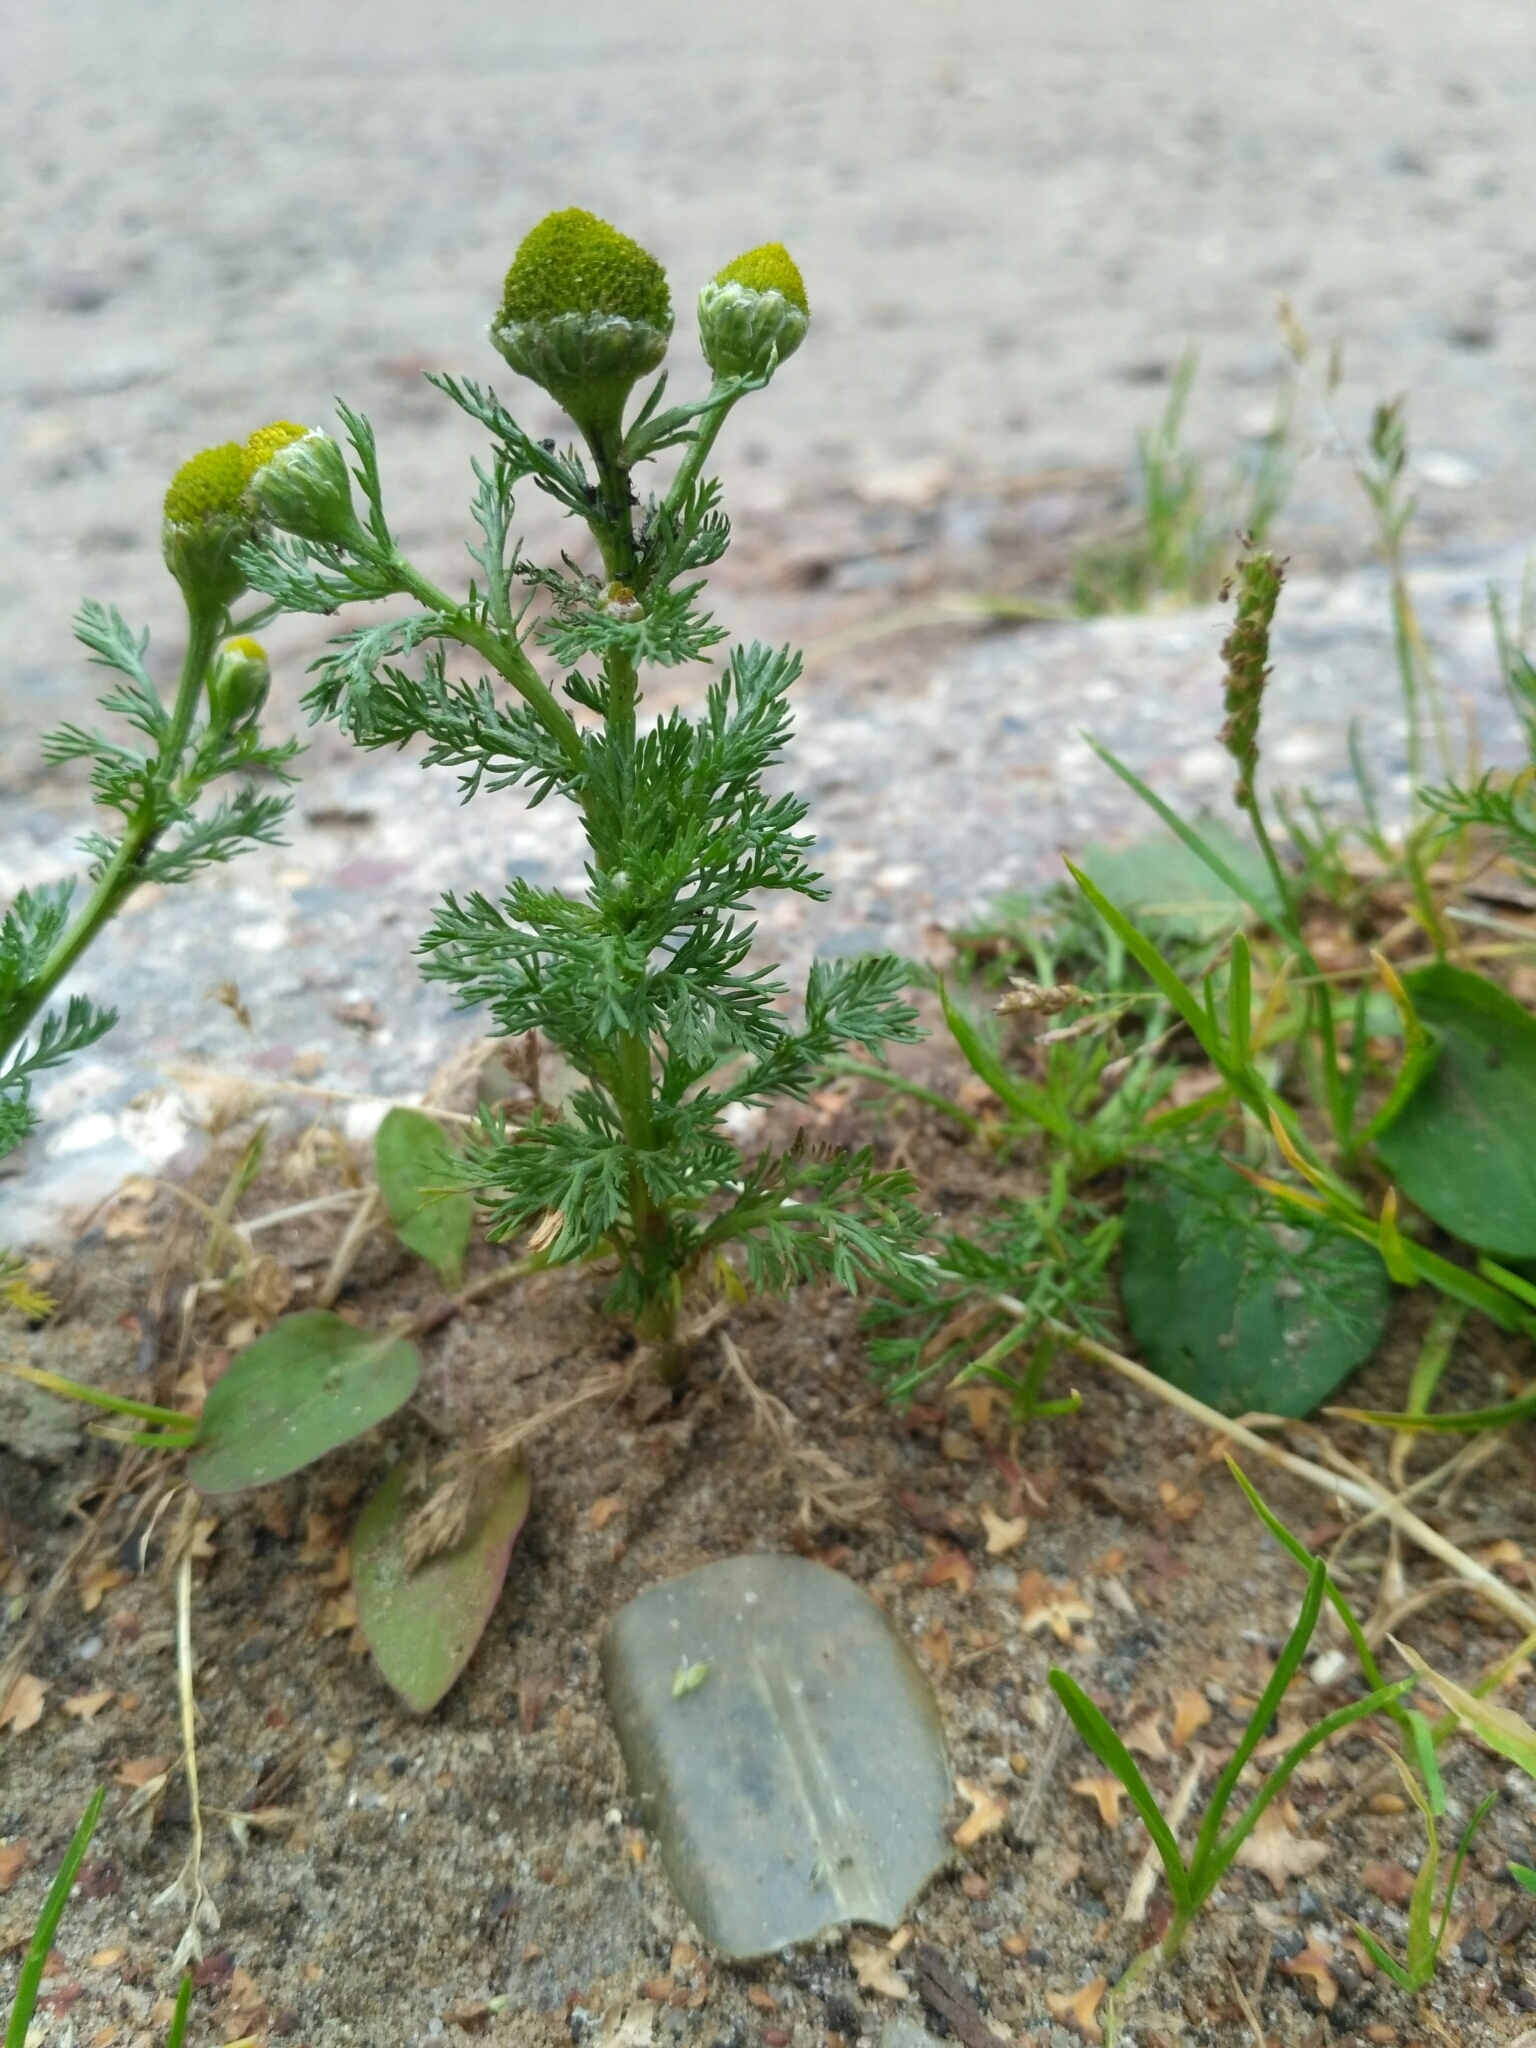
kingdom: Plantae
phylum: Tracheophyta
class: Magnoliopsida
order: Asterales
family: Asteraceae
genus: Matricaria
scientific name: Matricaria discoidea
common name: Disc mayweed
